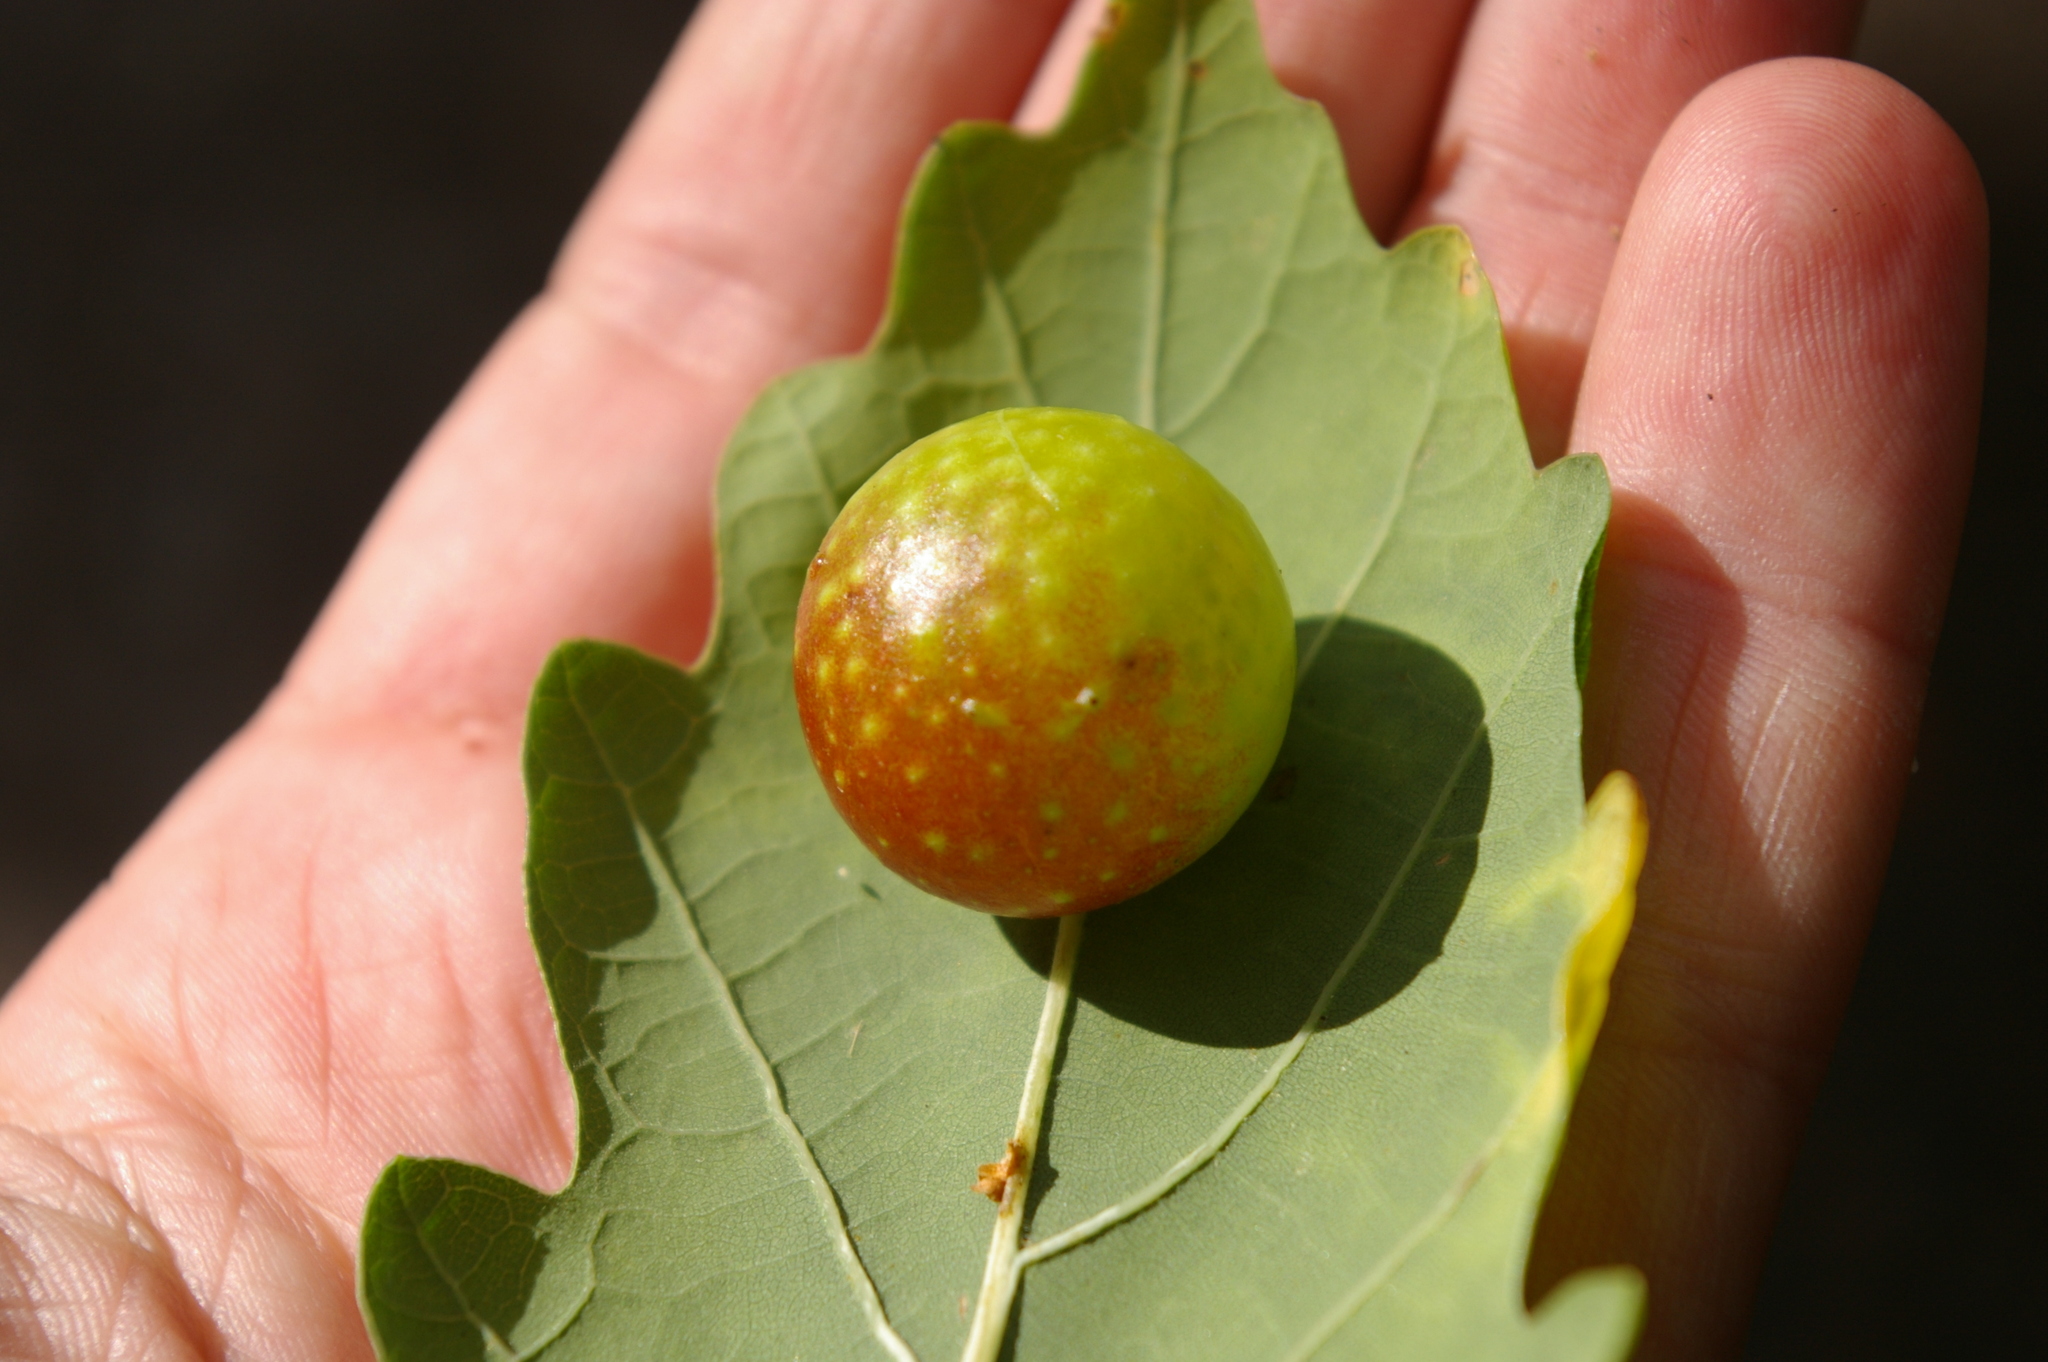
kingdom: Animalia
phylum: Arthropoda
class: Insecta
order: Hymenoptera
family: Cynipidae
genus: Cynips
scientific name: Cynips quercusfolii
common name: Cherry gall
